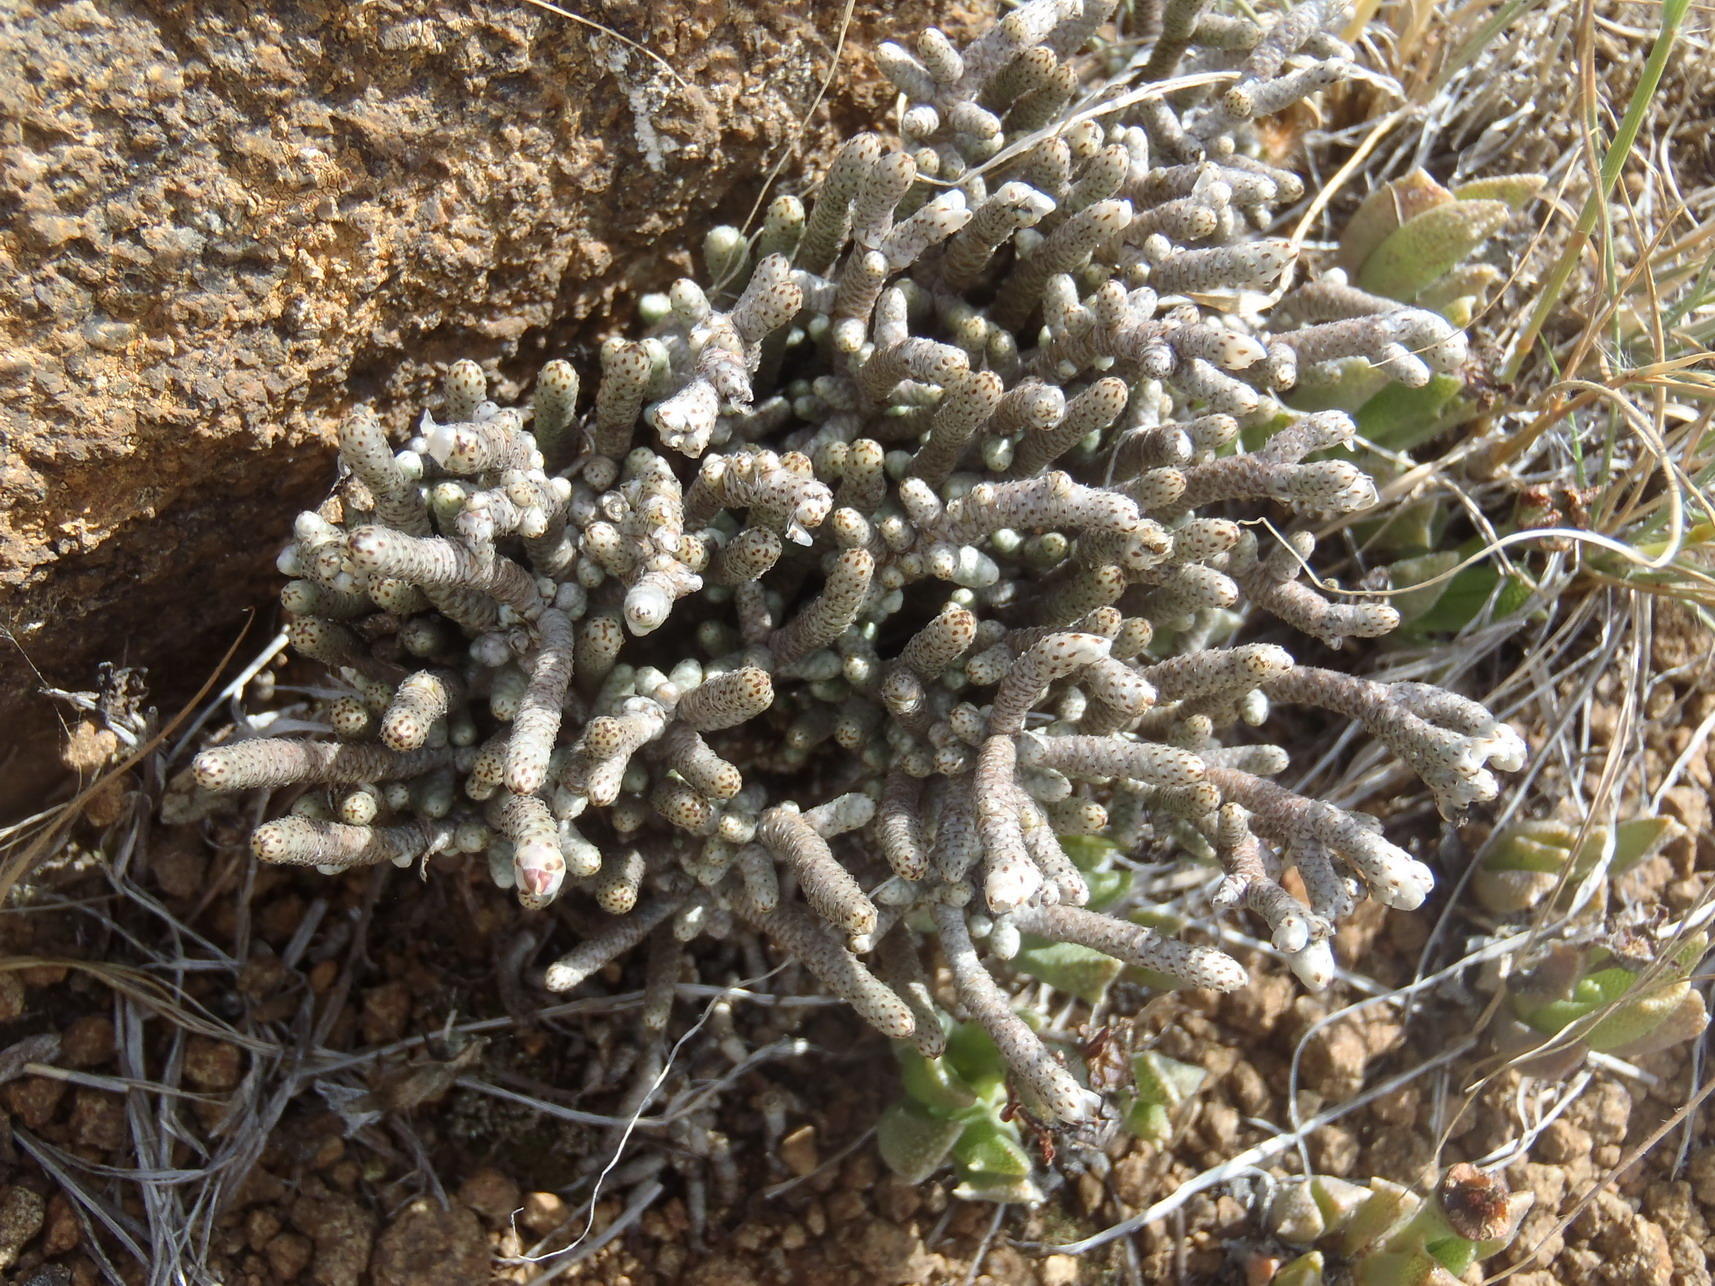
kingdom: Plantae
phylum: Tracheophyta
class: Magnoliopsida
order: Caryophyllales
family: Anacampserotaceae
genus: Avonia
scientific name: Avonia ustulata
